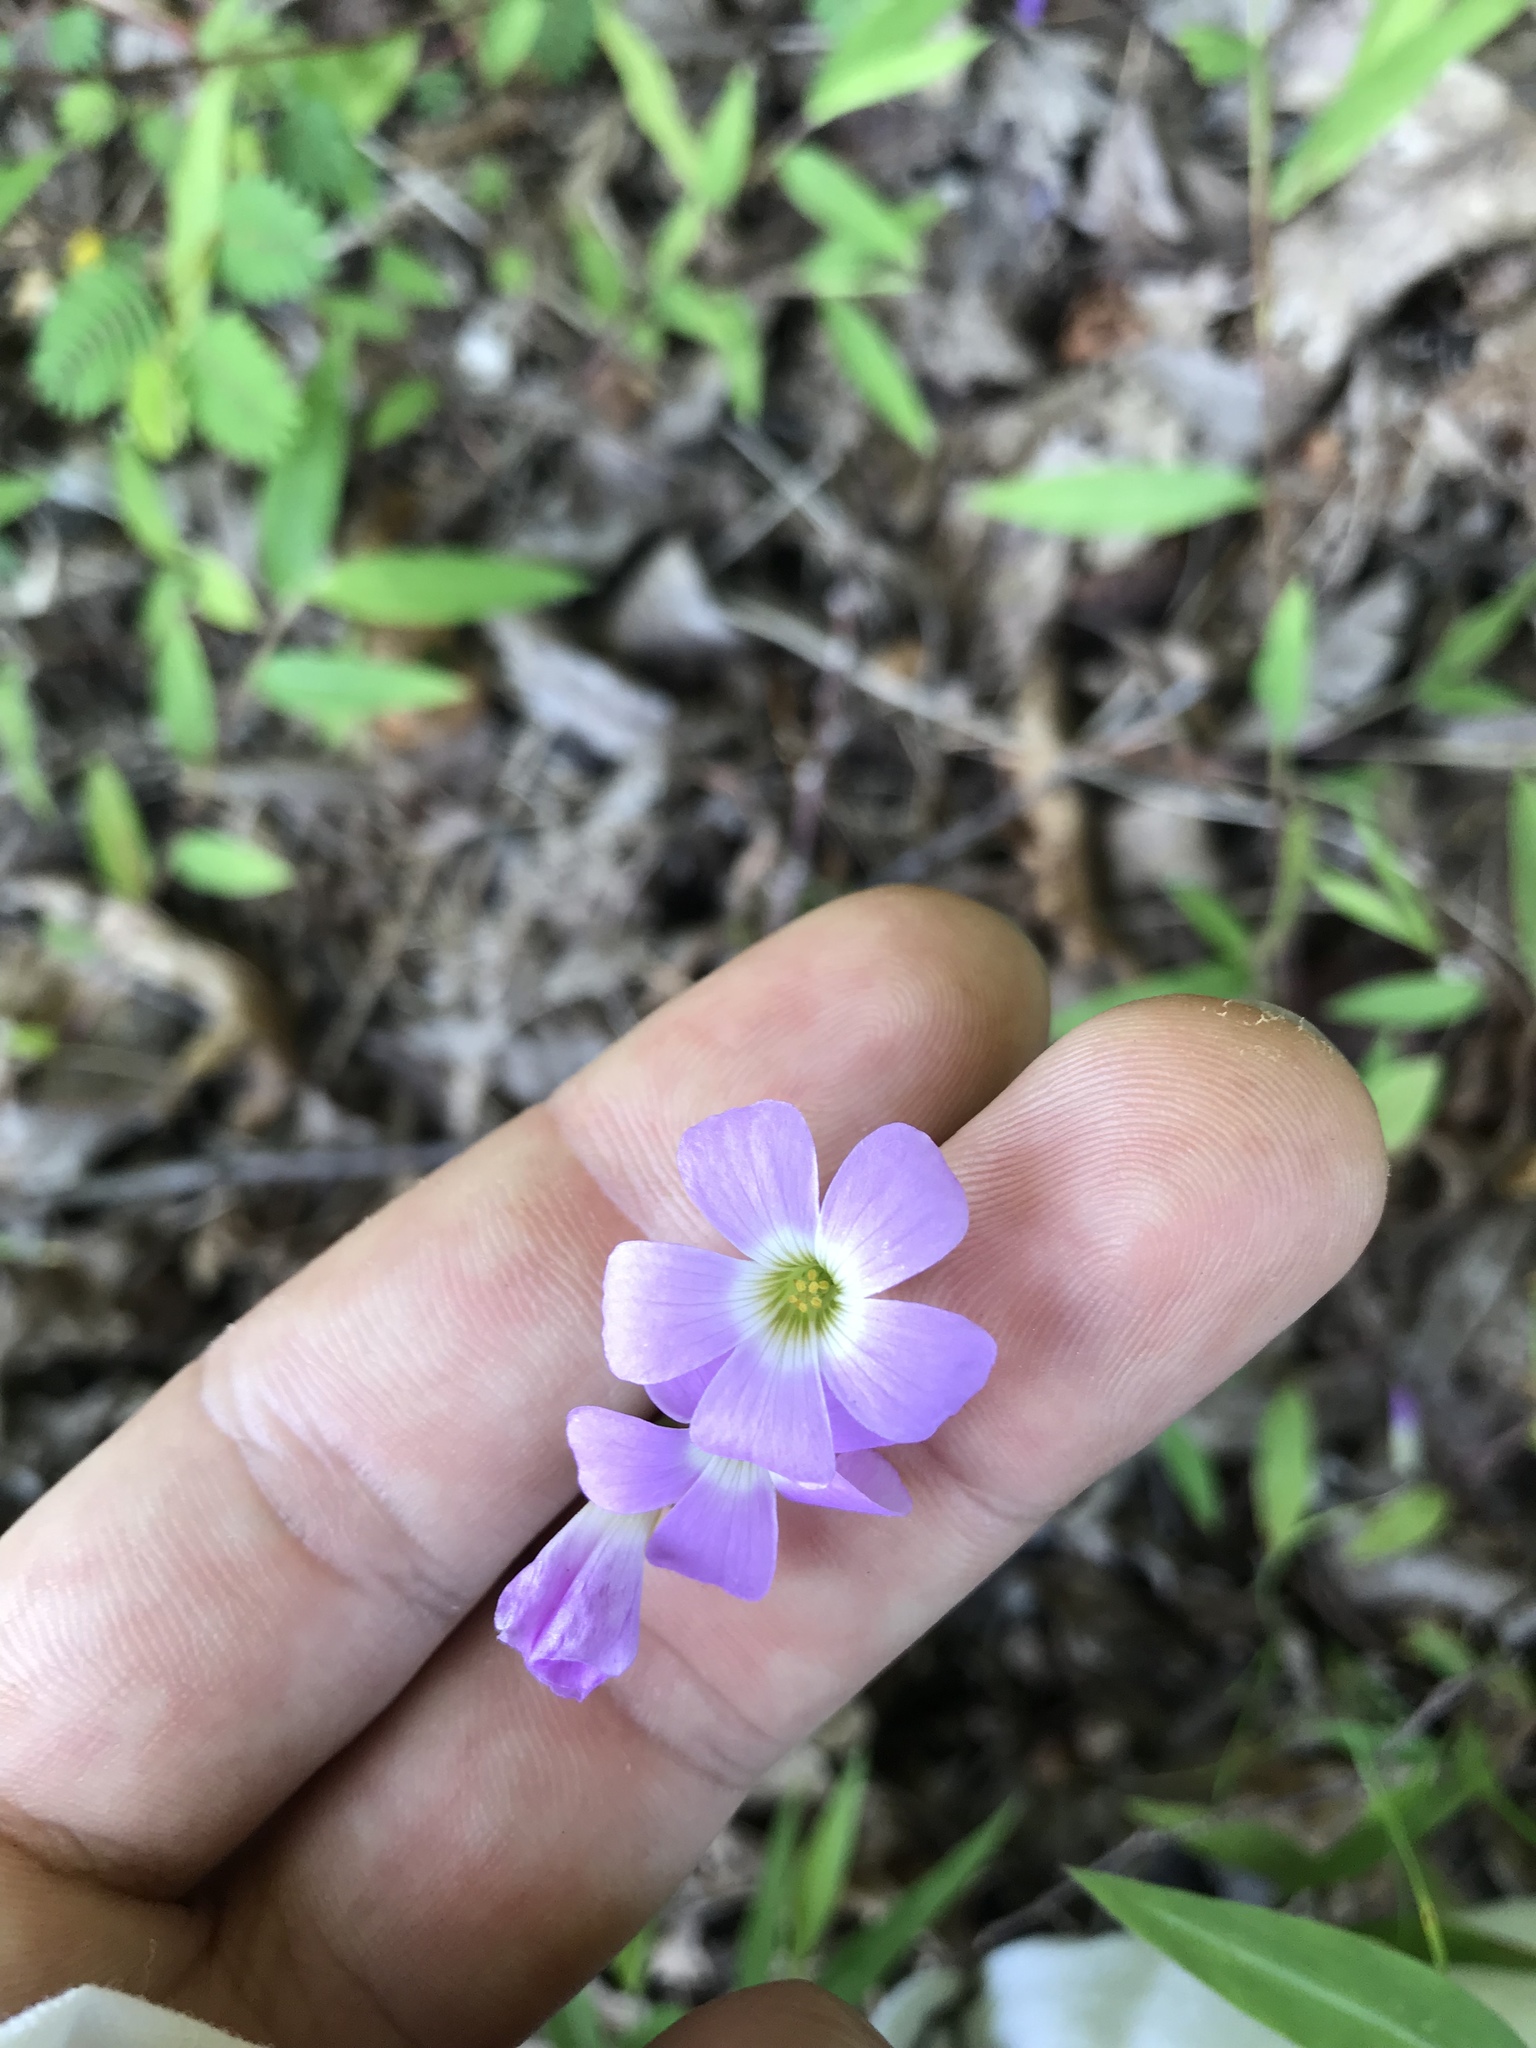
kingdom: Plantae
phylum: Tracheophyta
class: Magnoliopsida
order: Oxalidales
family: Oxalidaceae
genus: Oxalis
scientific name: Oxalis violacea
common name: Violet wood-sorrel
